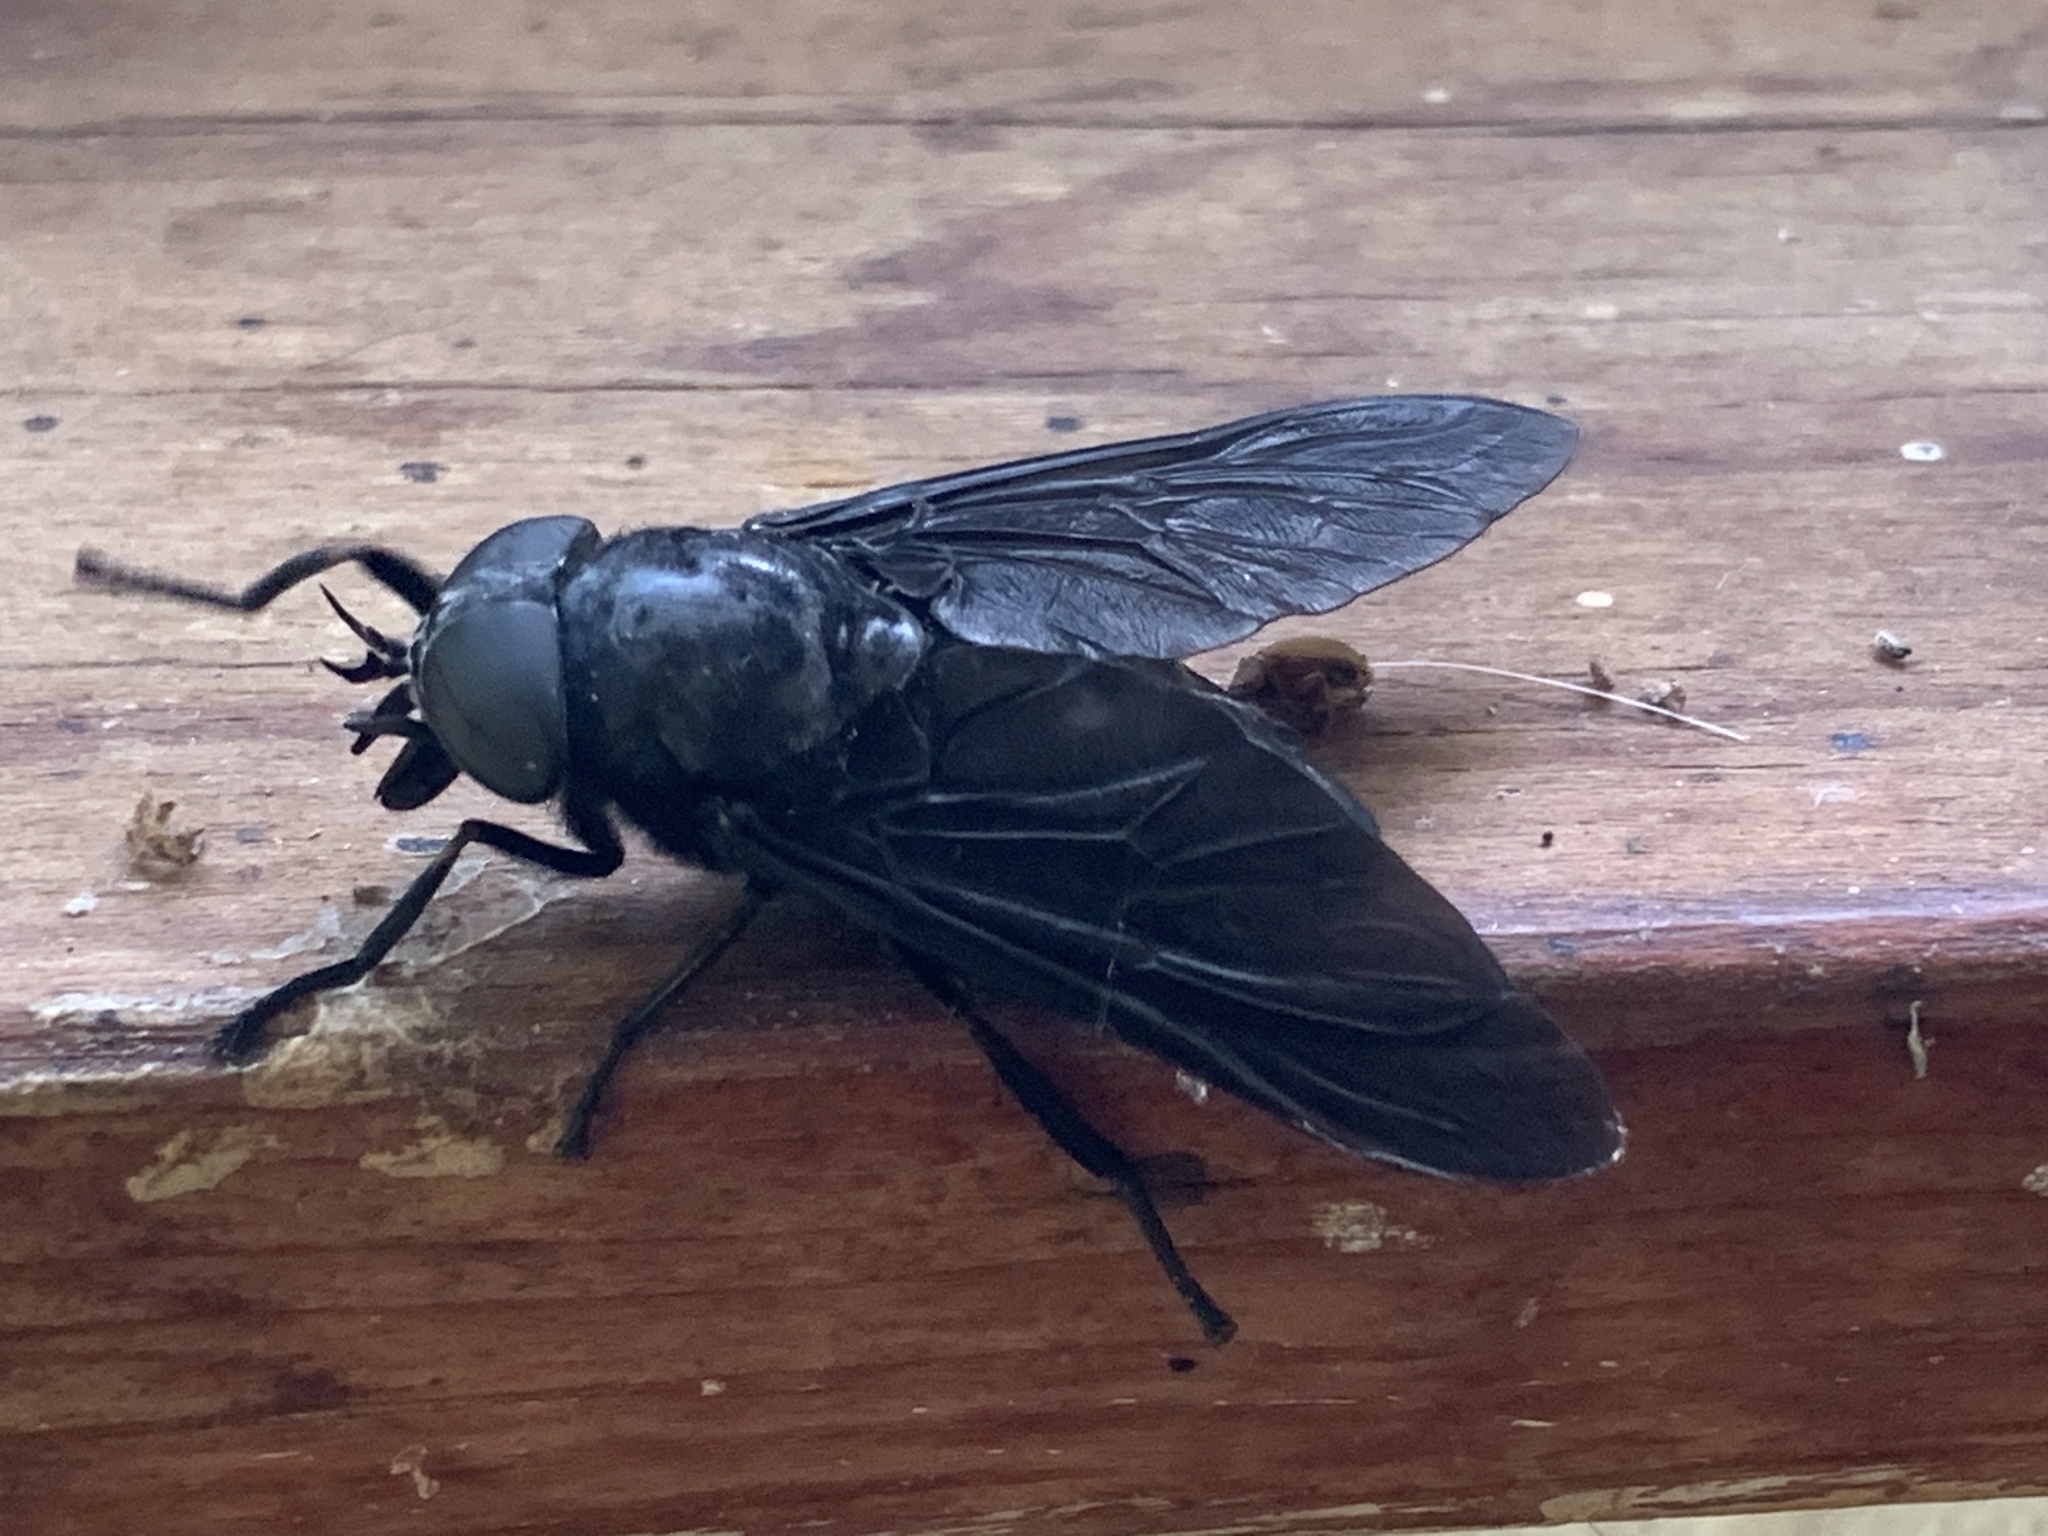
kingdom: Animalia
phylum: Arthropoda
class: Insecta
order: Diptera
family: Tabanidae
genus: Tabanus
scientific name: Tabanus atratus
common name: Black horse fly
